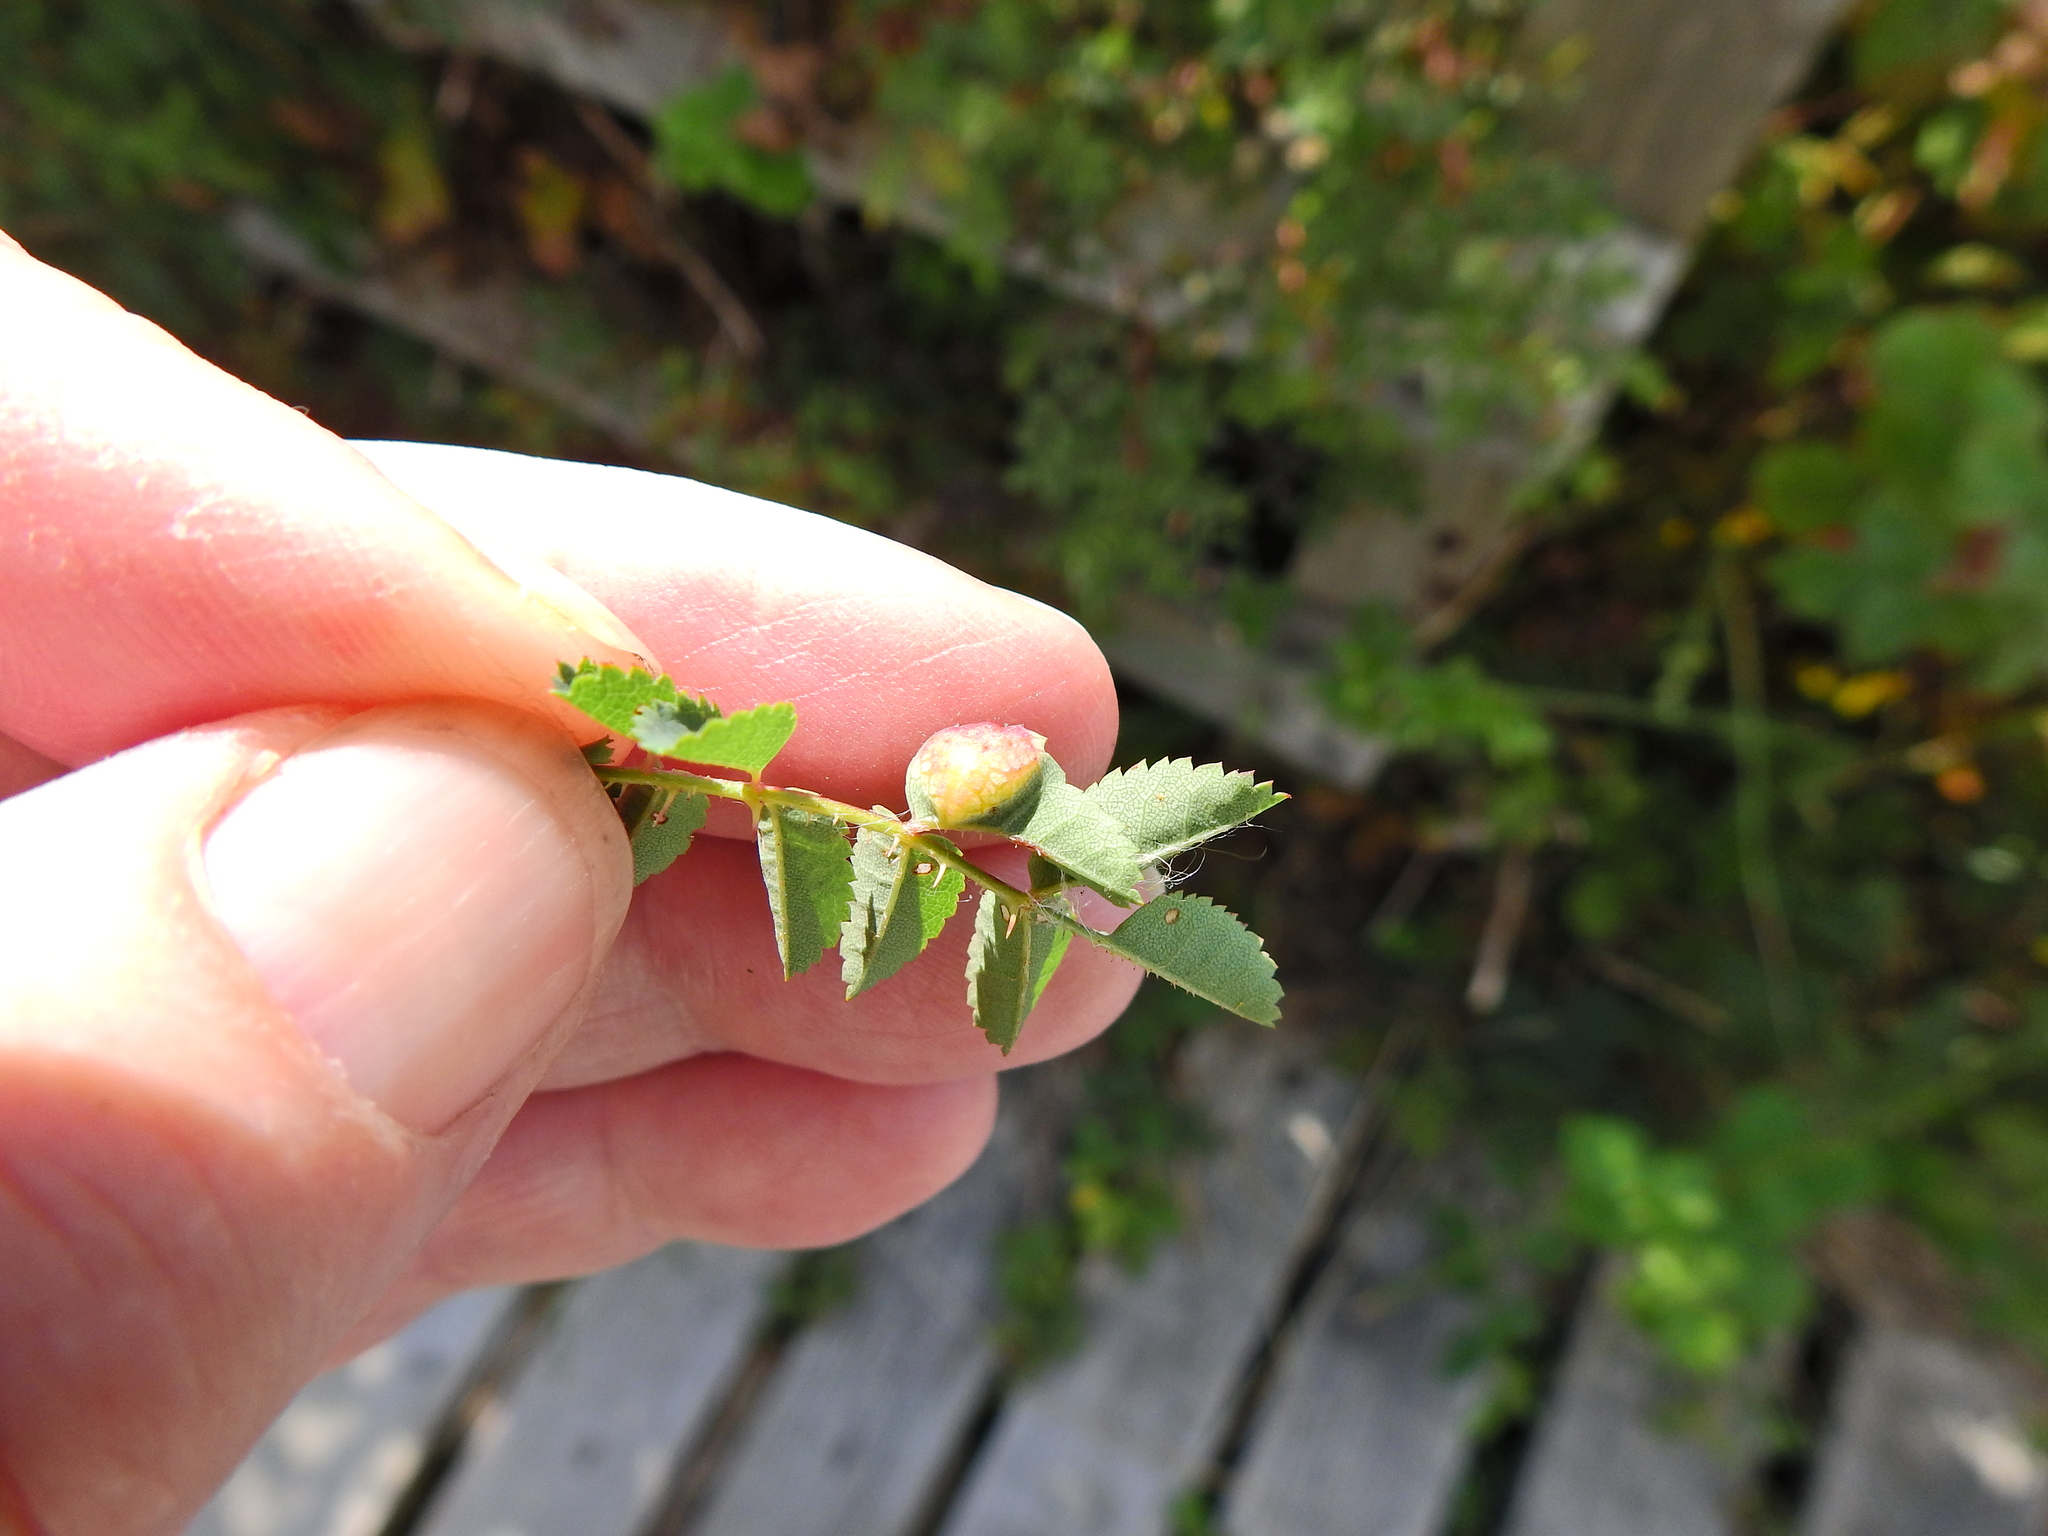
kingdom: Animalia
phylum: Arthropoda
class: Insecta
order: Hymenoptera
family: Cynipidae
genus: Diplolepis
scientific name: Diplolepis spinosissimae
